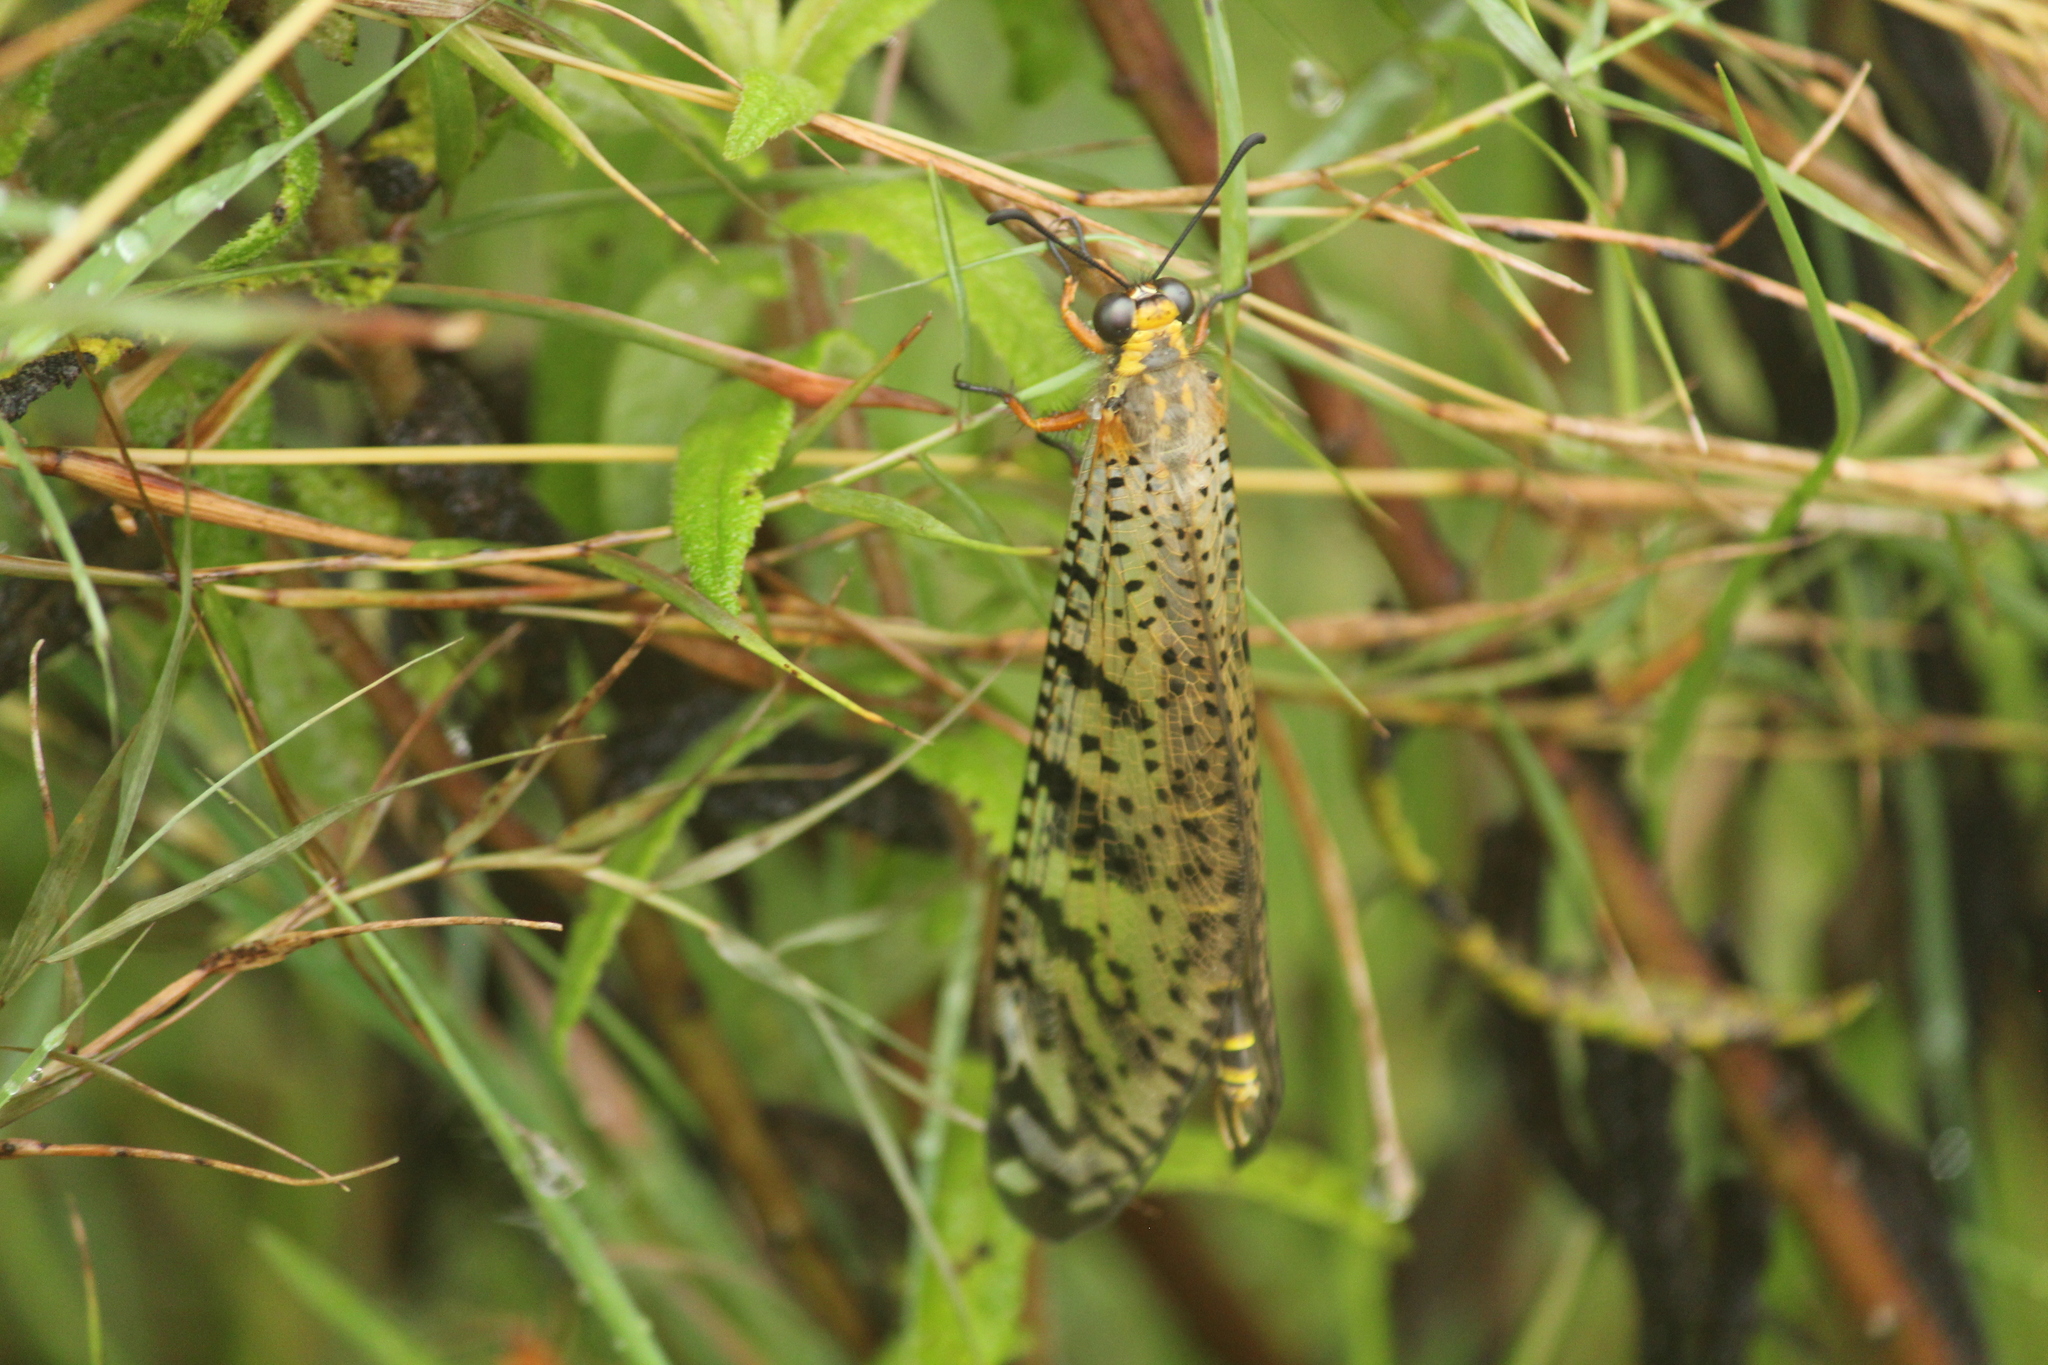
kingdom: Animalia
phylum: Arthropoda
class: Insecta
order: Neuroptera
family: Myrmeleontidae
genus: Indopalpares
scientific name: Indopalpares pardus
